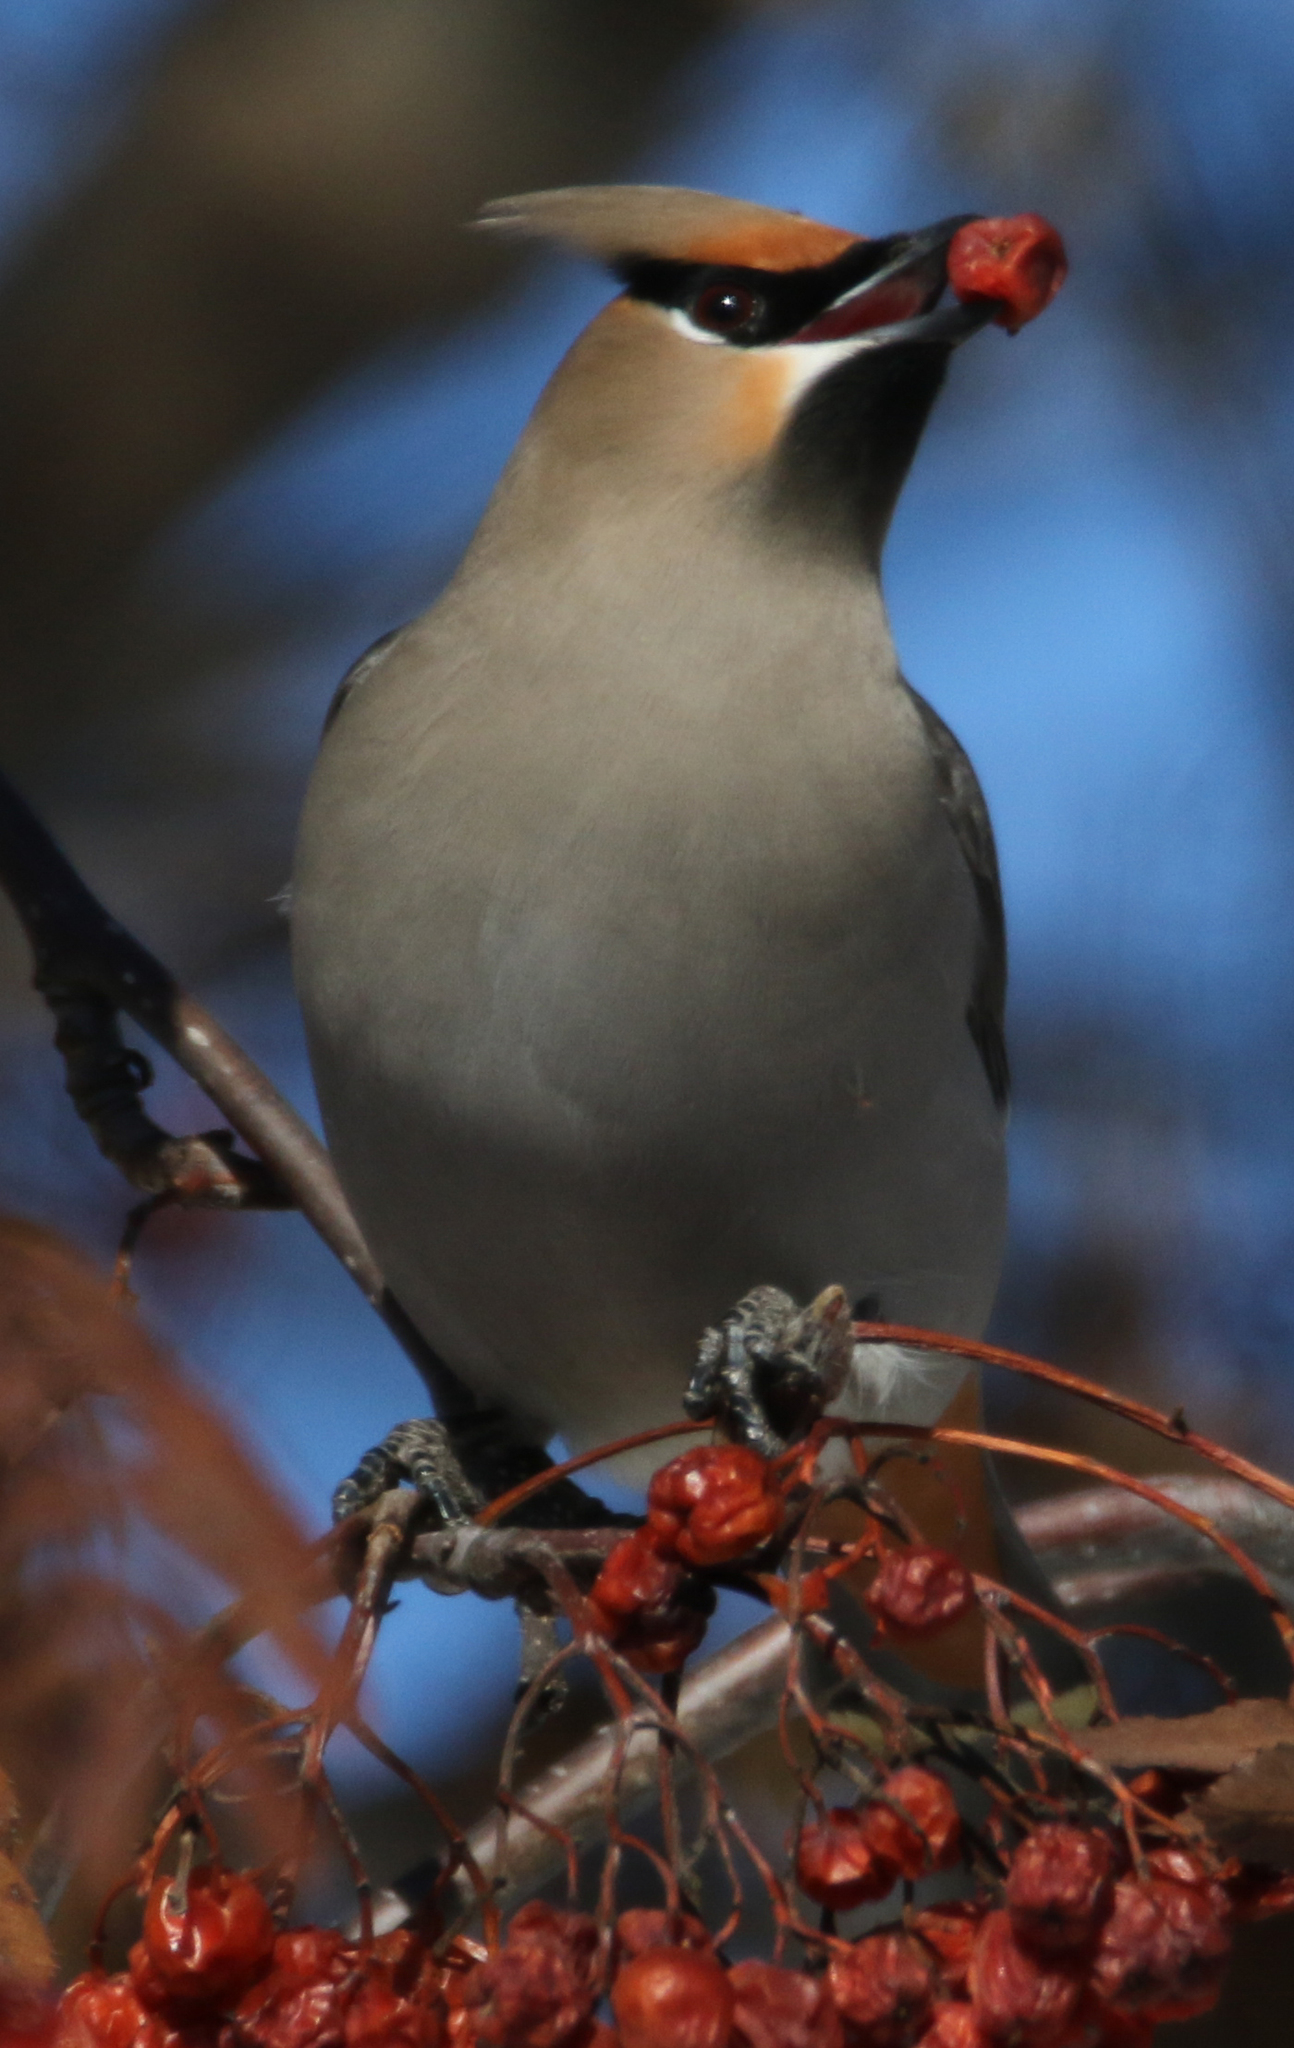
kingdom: Animalia
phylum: Chordata
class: Aves
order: Passeriformes
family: Bombycillidae
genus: Bombycilla
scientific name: Bombycilla garrulus
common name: Bohemian waxwing
